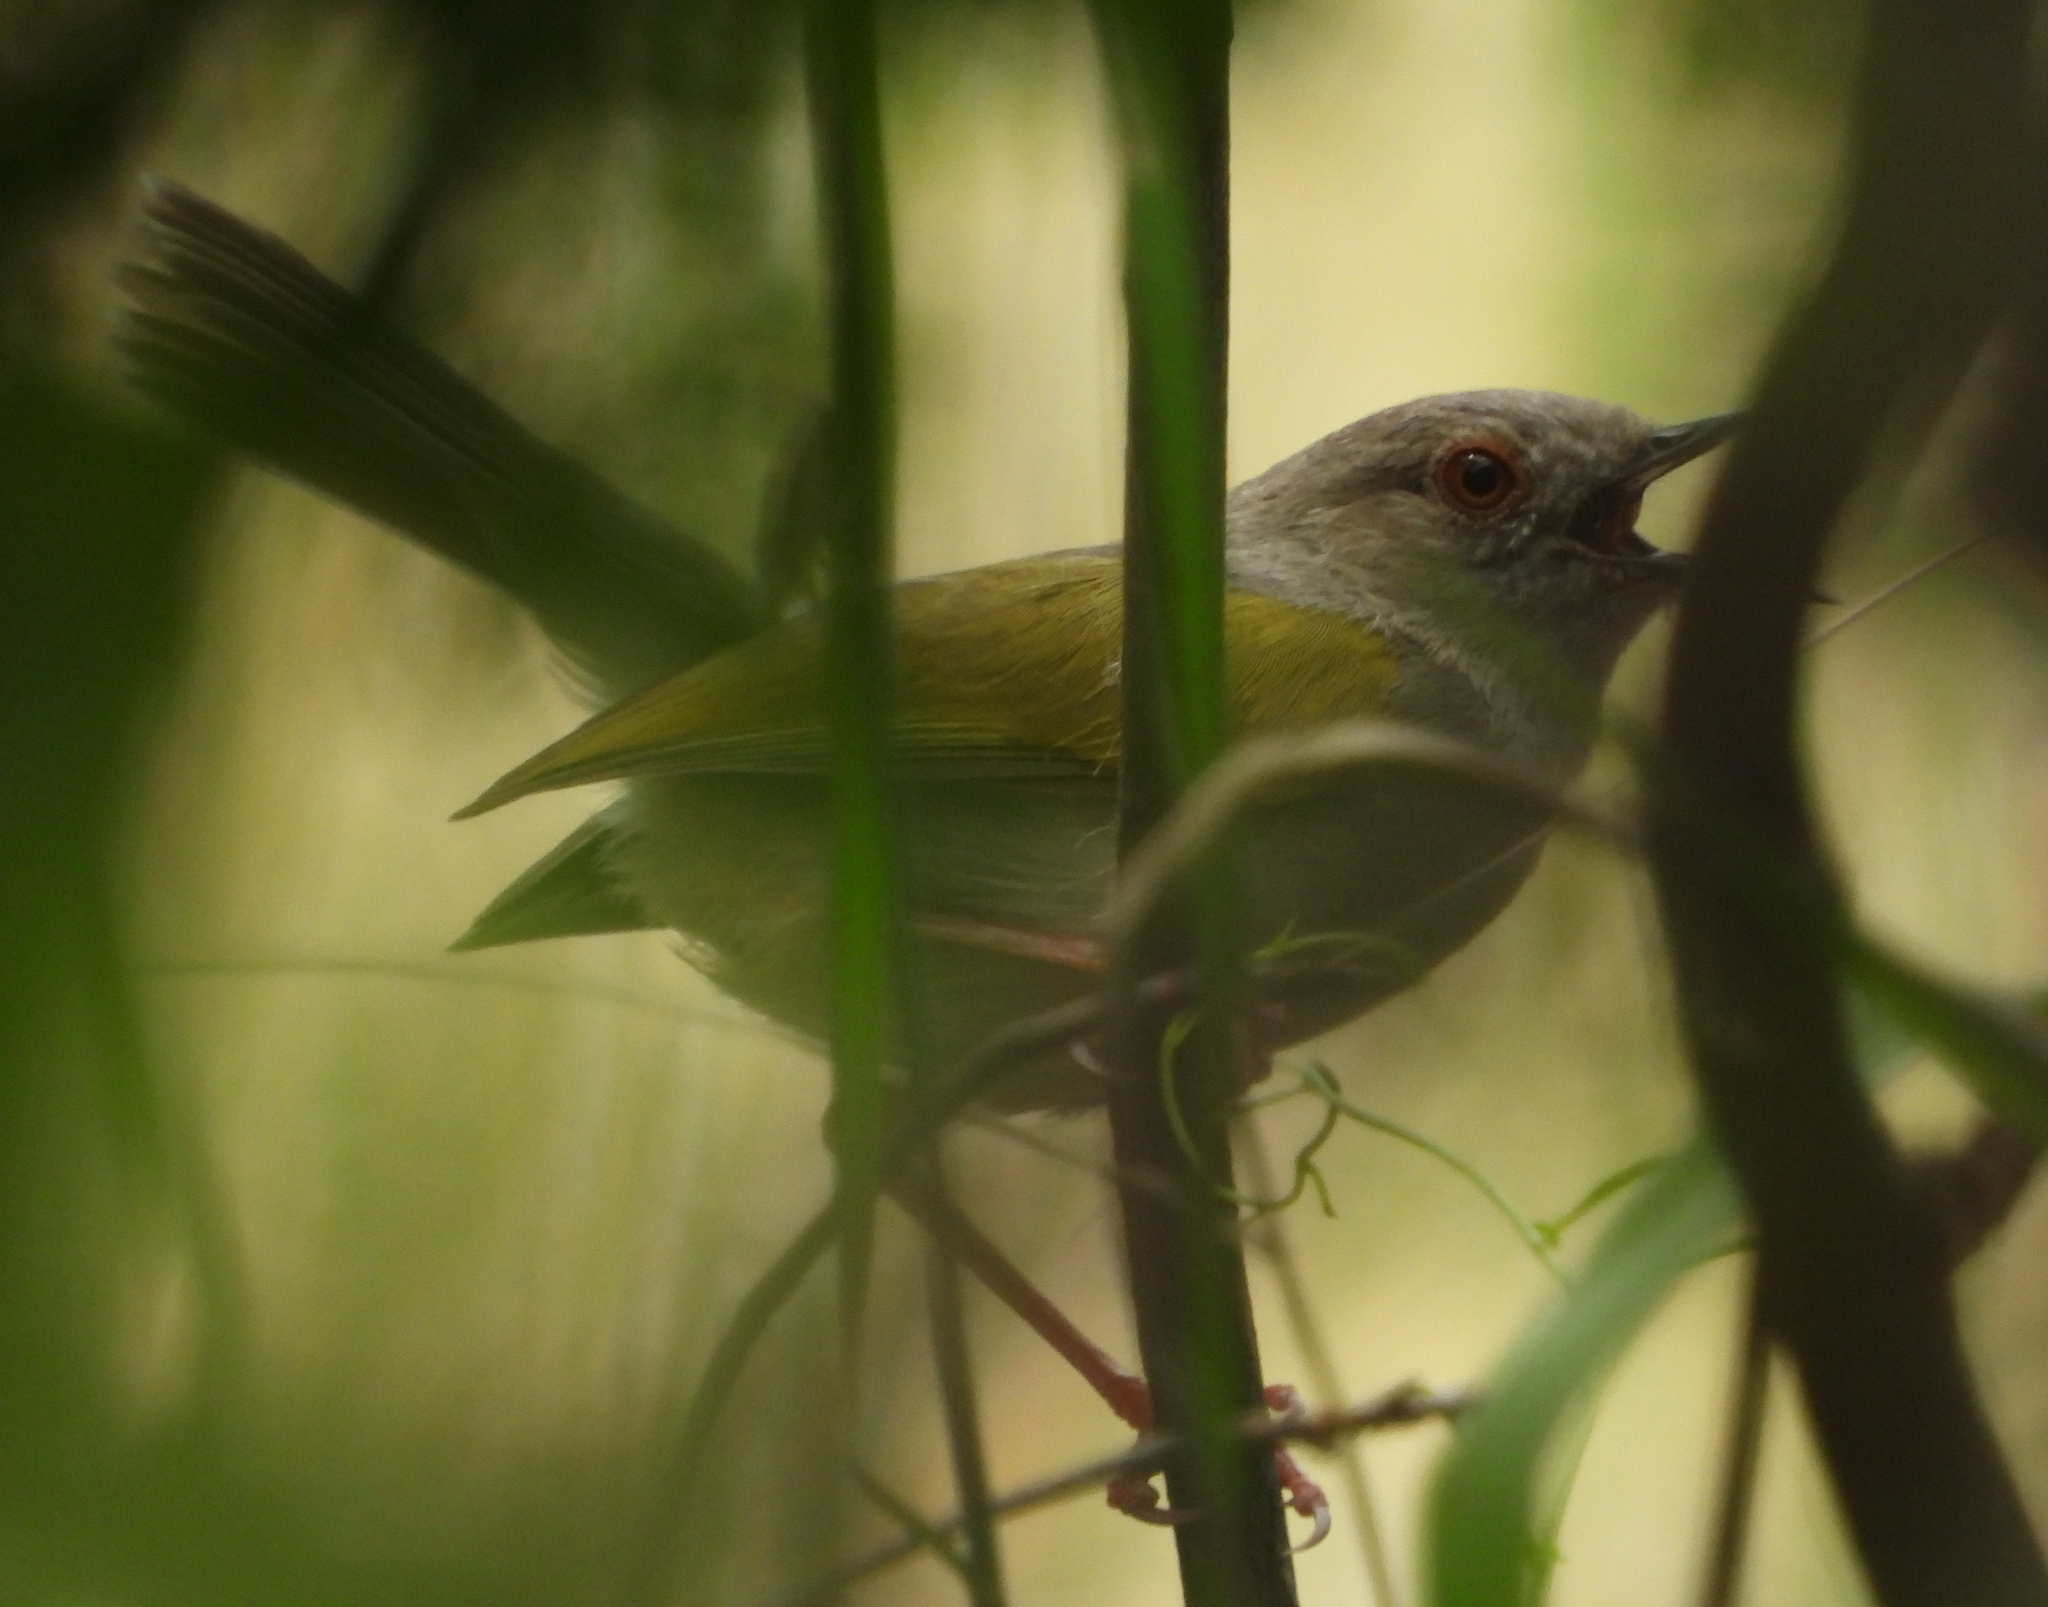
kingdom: Animalia
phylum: Chordata
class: Aves
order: Passeriformes
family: Cisticolidae
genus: Camaroptera
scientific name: Camaroptera brachyura
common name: Green-backed camaroptera
